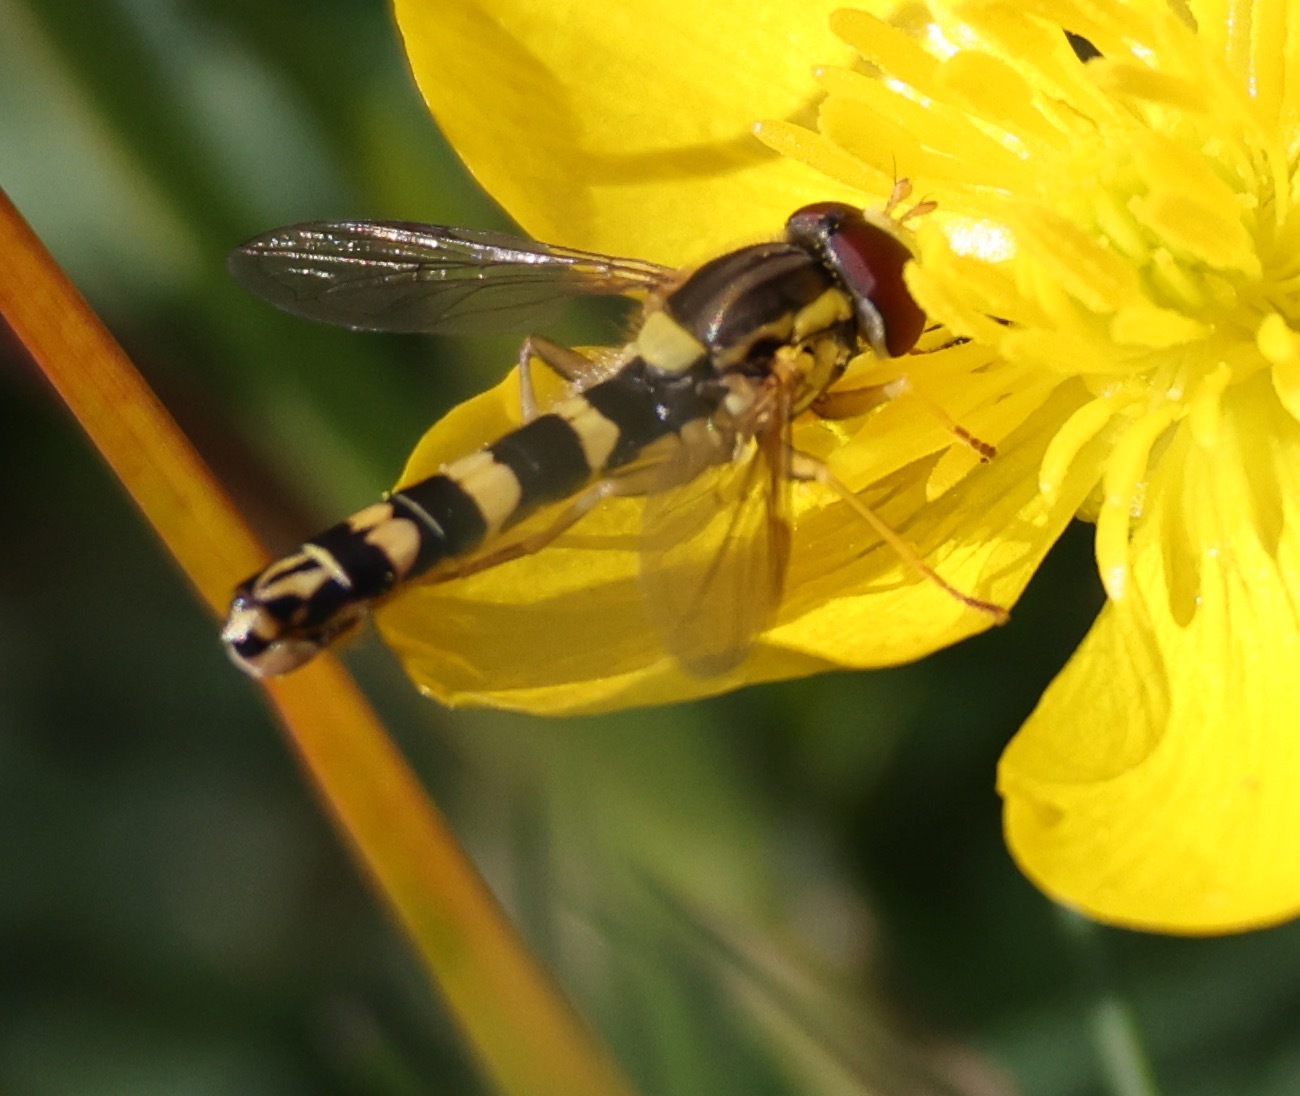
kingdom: Animalia
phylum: Arthropoda
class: Insecta
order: Diptera
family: Syrphidae
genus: Sphaerophoria
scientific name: Sphaerophoria scripta
